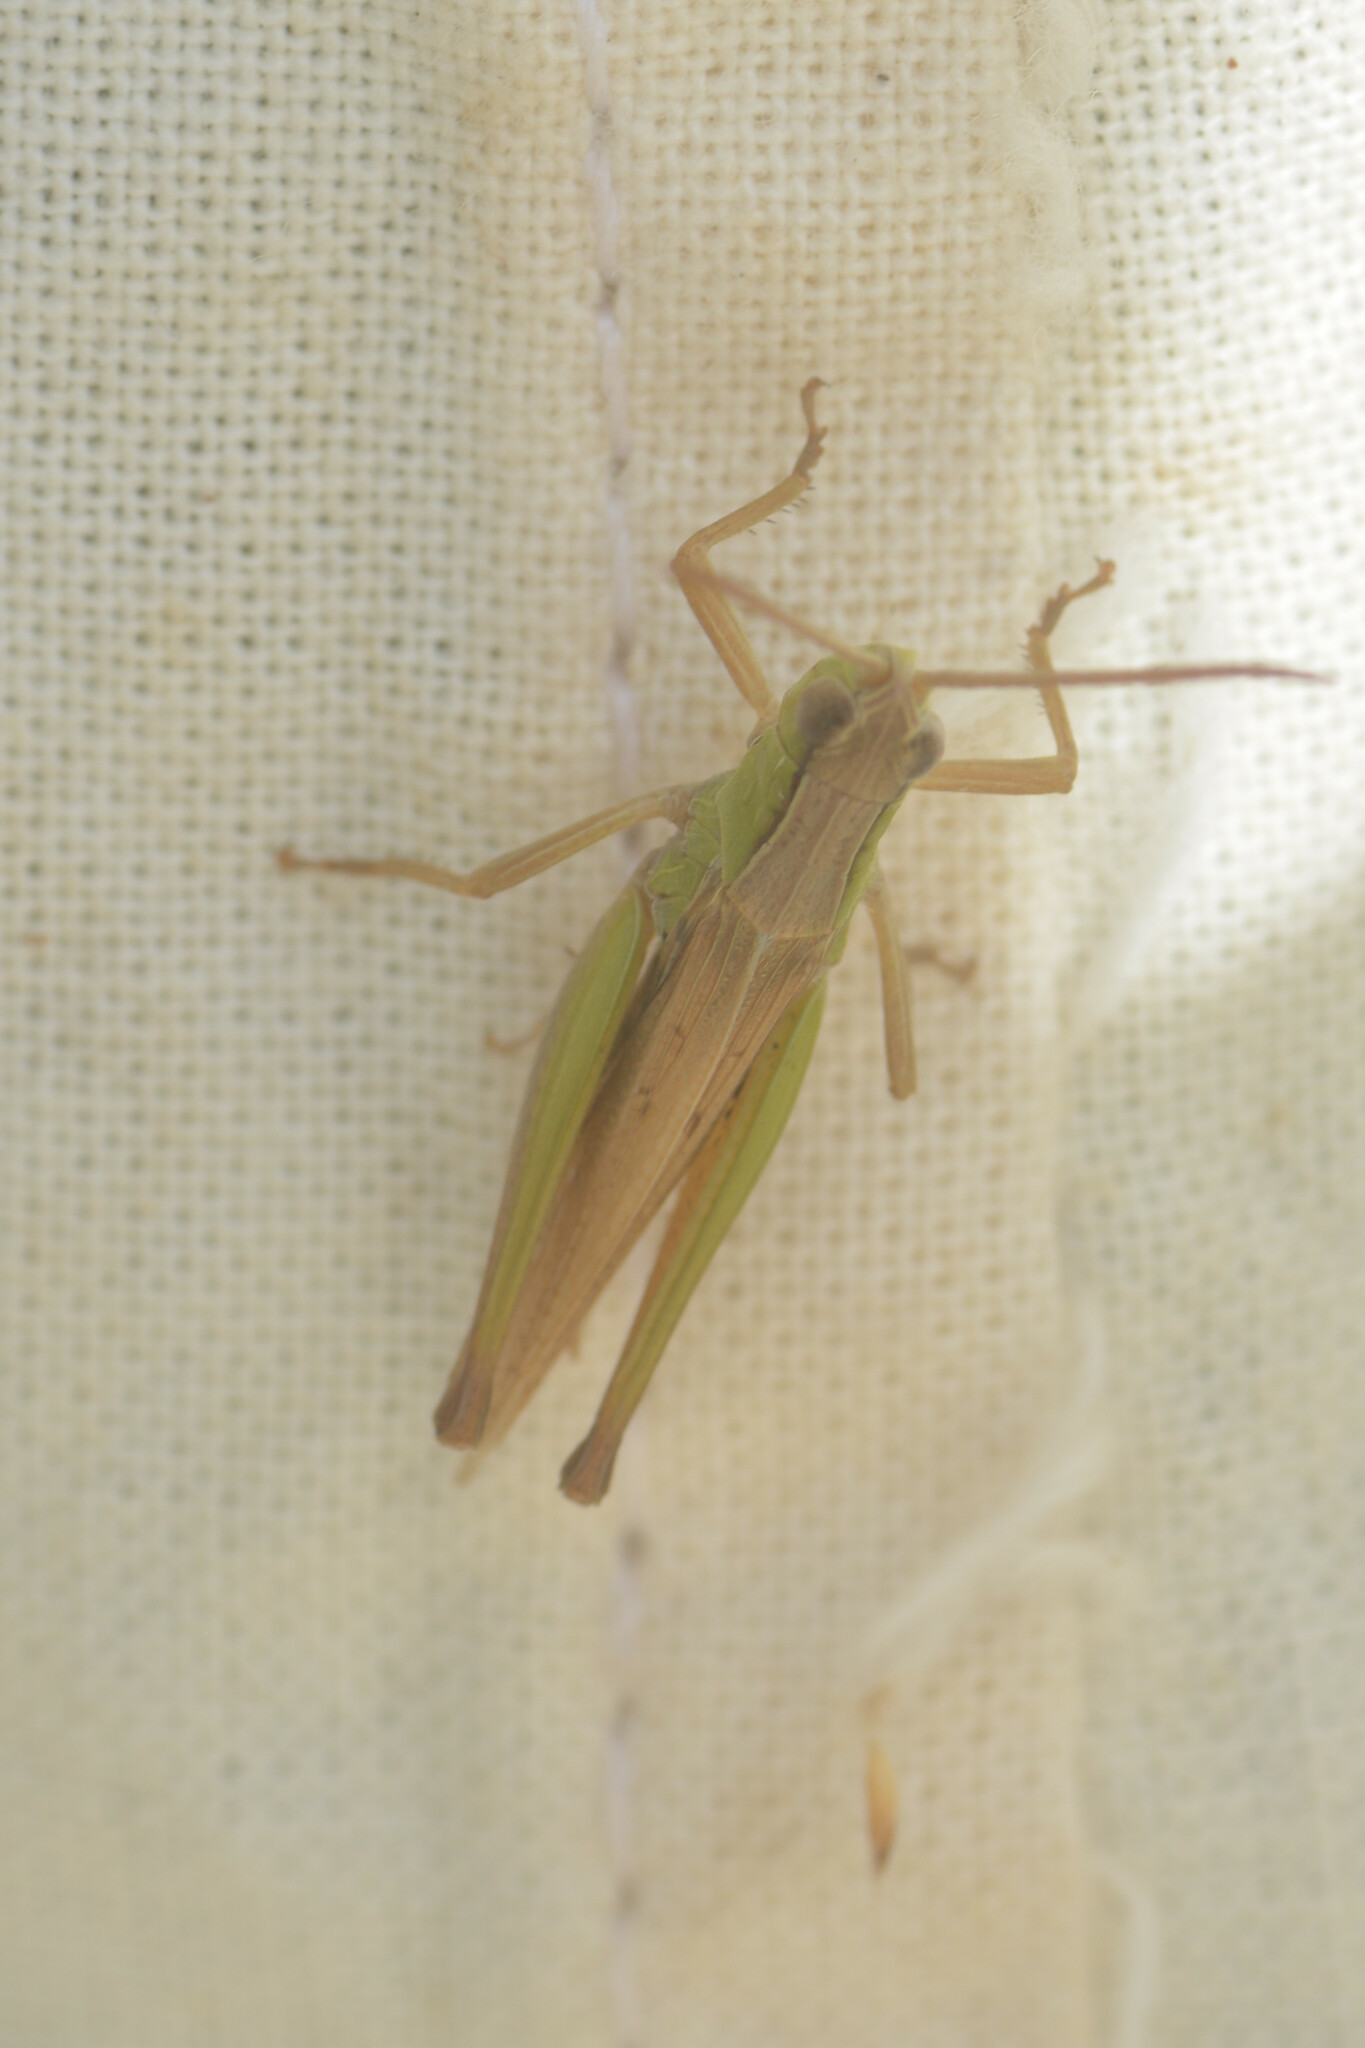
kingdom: Animalia
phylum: Arthropoda
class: Insecta
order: Orthoptera
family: Acrididae
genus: Chorthippus
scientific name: Chorthippus albomarginatus
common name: Lesser marsh grasshopper
